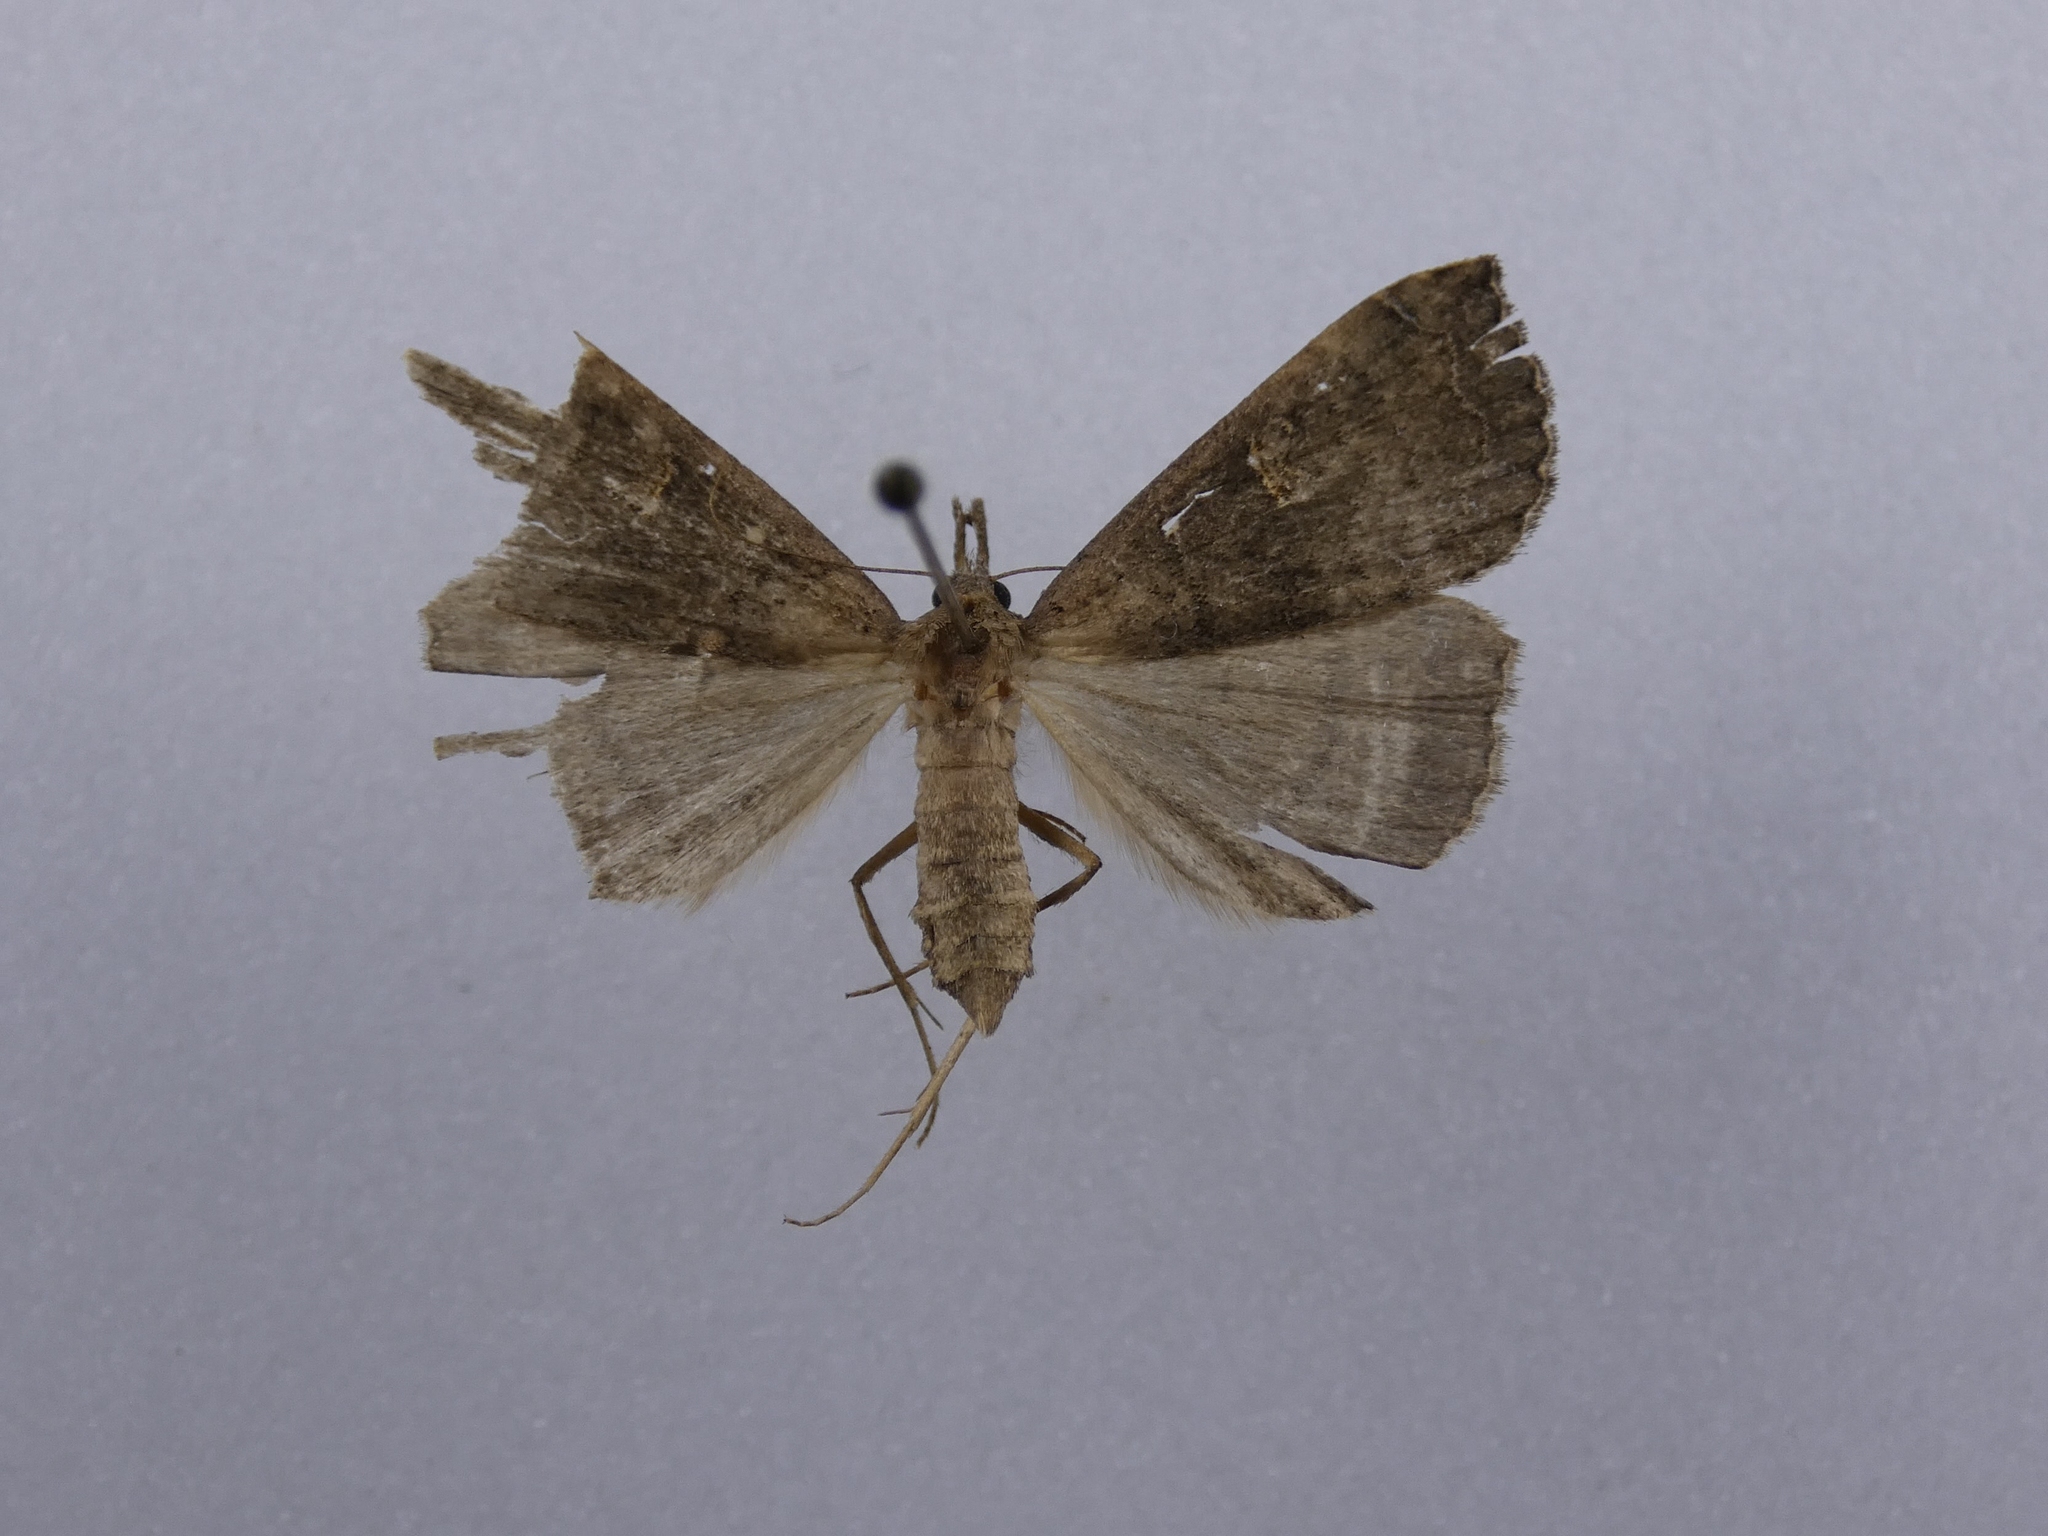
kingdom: Animalia
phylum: Arthropoda
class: Insecta
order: Lepidoptera
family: Erebidae
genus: Rhapsa
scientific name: Rhapsa scotosialis
